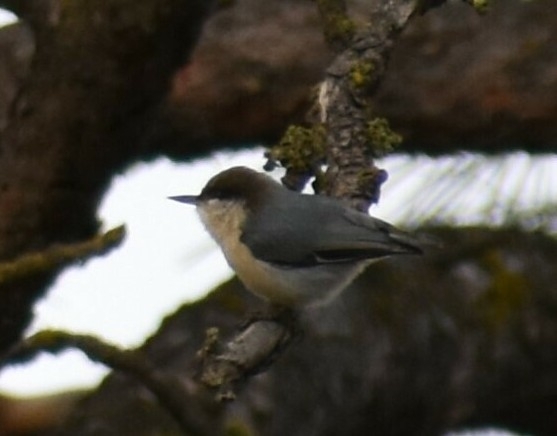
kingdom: Animalia
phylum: Chordata
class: Aves
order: Passeriformes
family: Sittidae
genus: Sitta
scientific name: Sitta pygmaea
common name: Pygmy nuthatch
